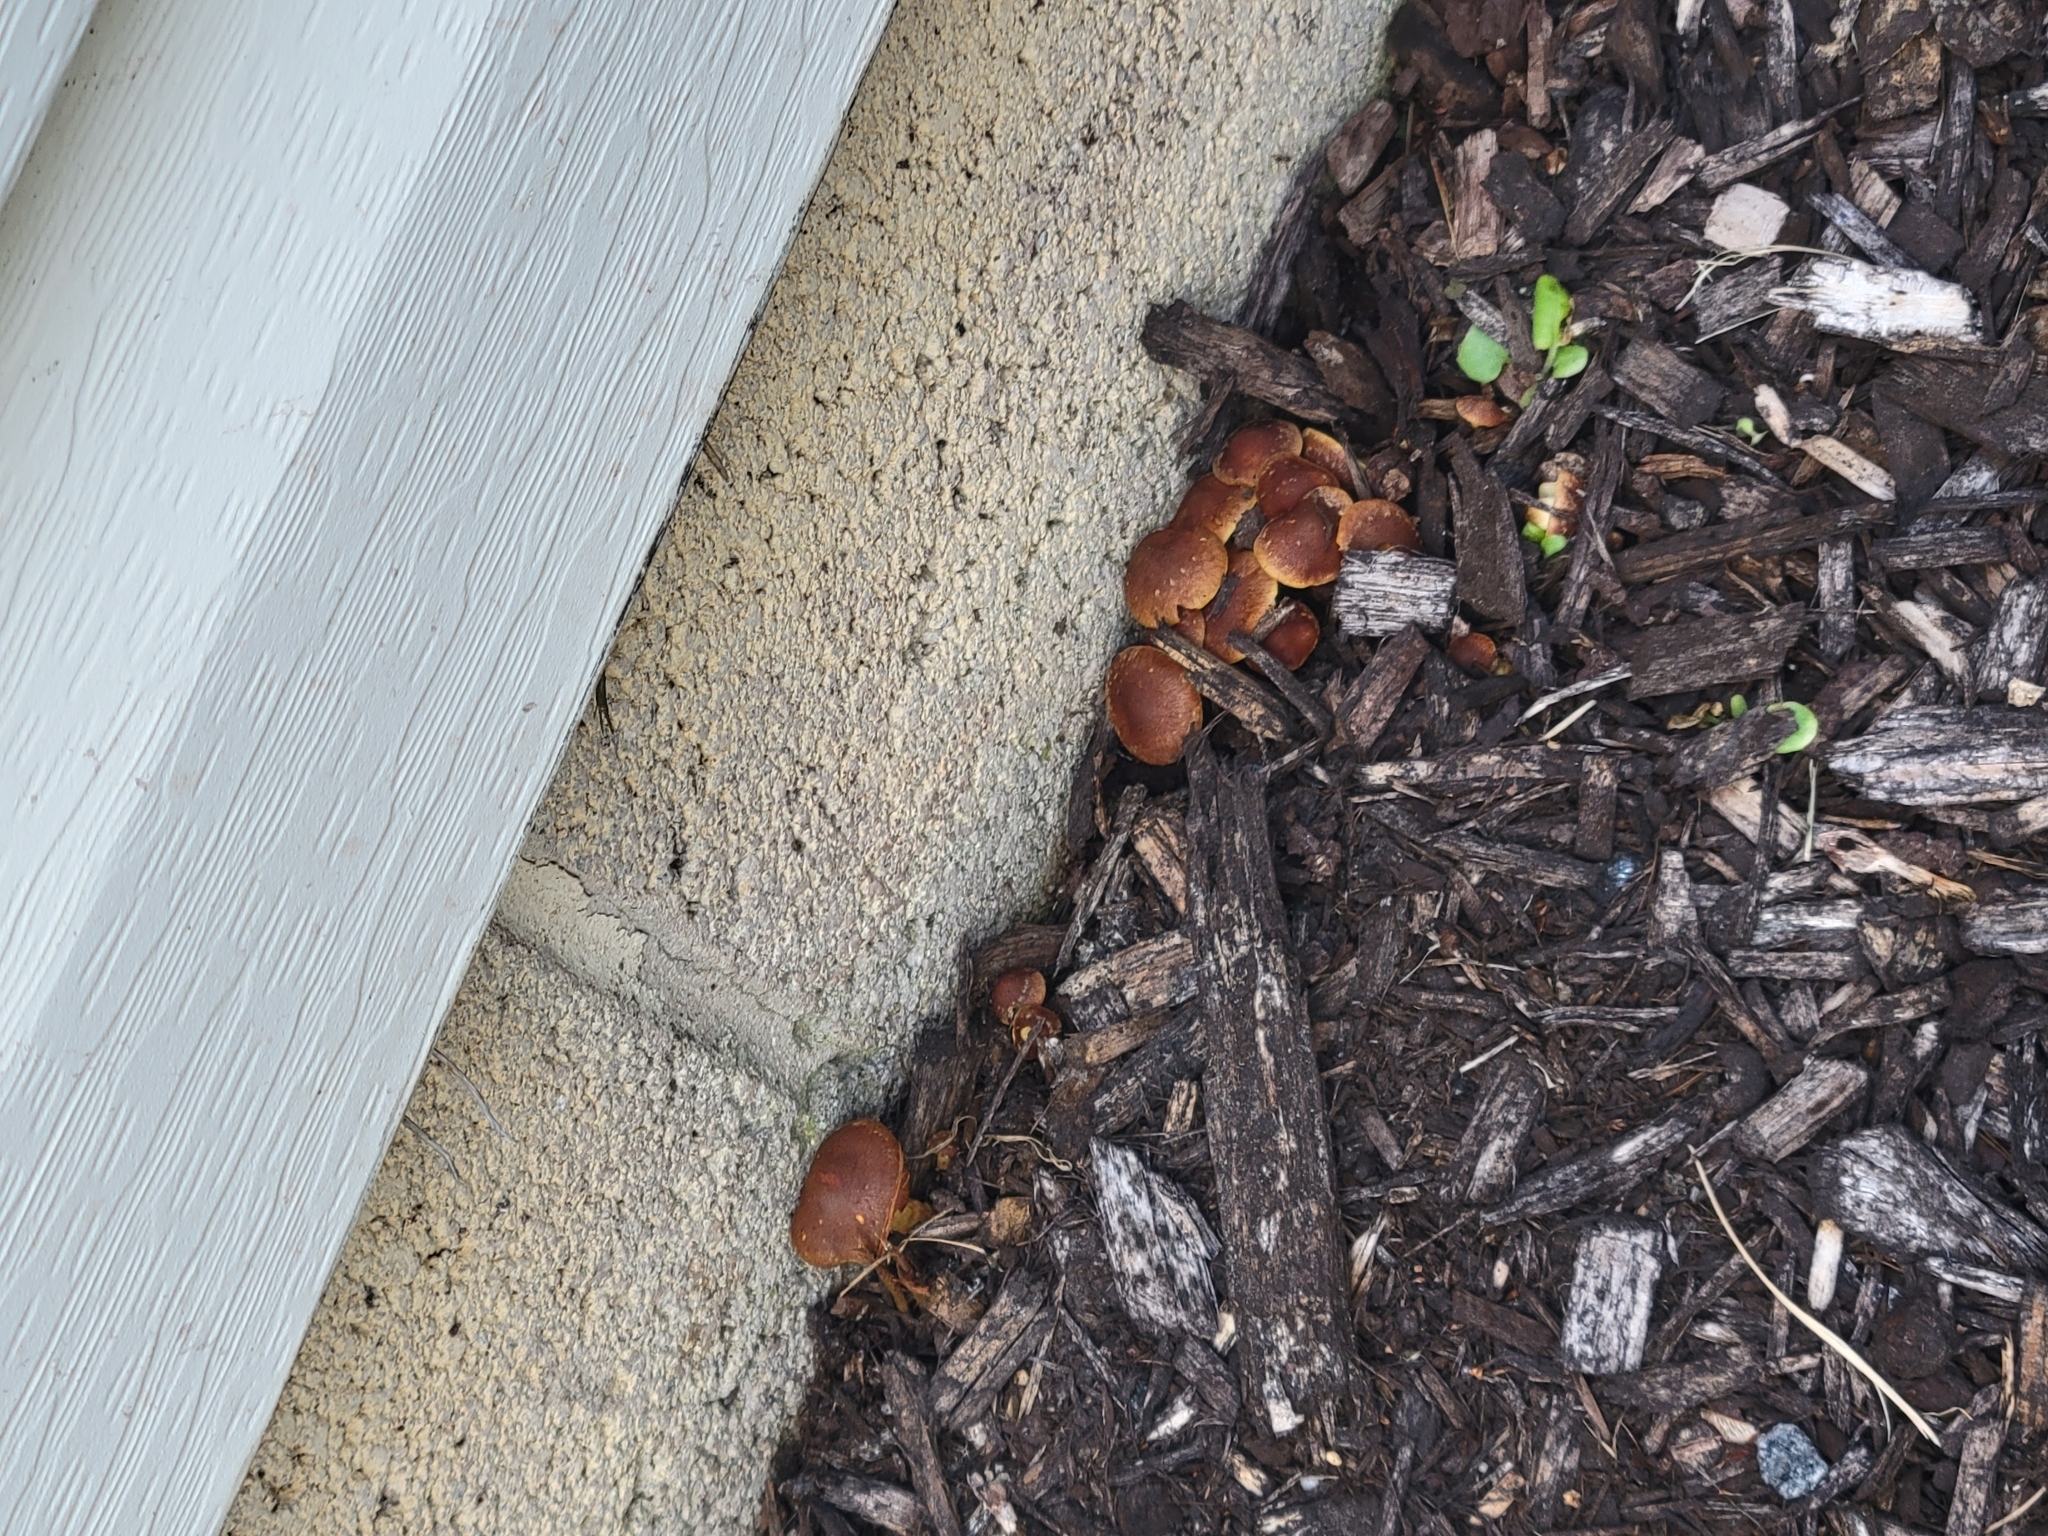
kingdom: Fungi
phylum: Basidiomycota
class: Agaricomycetes
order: Agaricales
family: Hymenogastraceae
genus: Gymnopilus
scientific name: Gymnopilus sapineus
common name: Scaly rustgill
